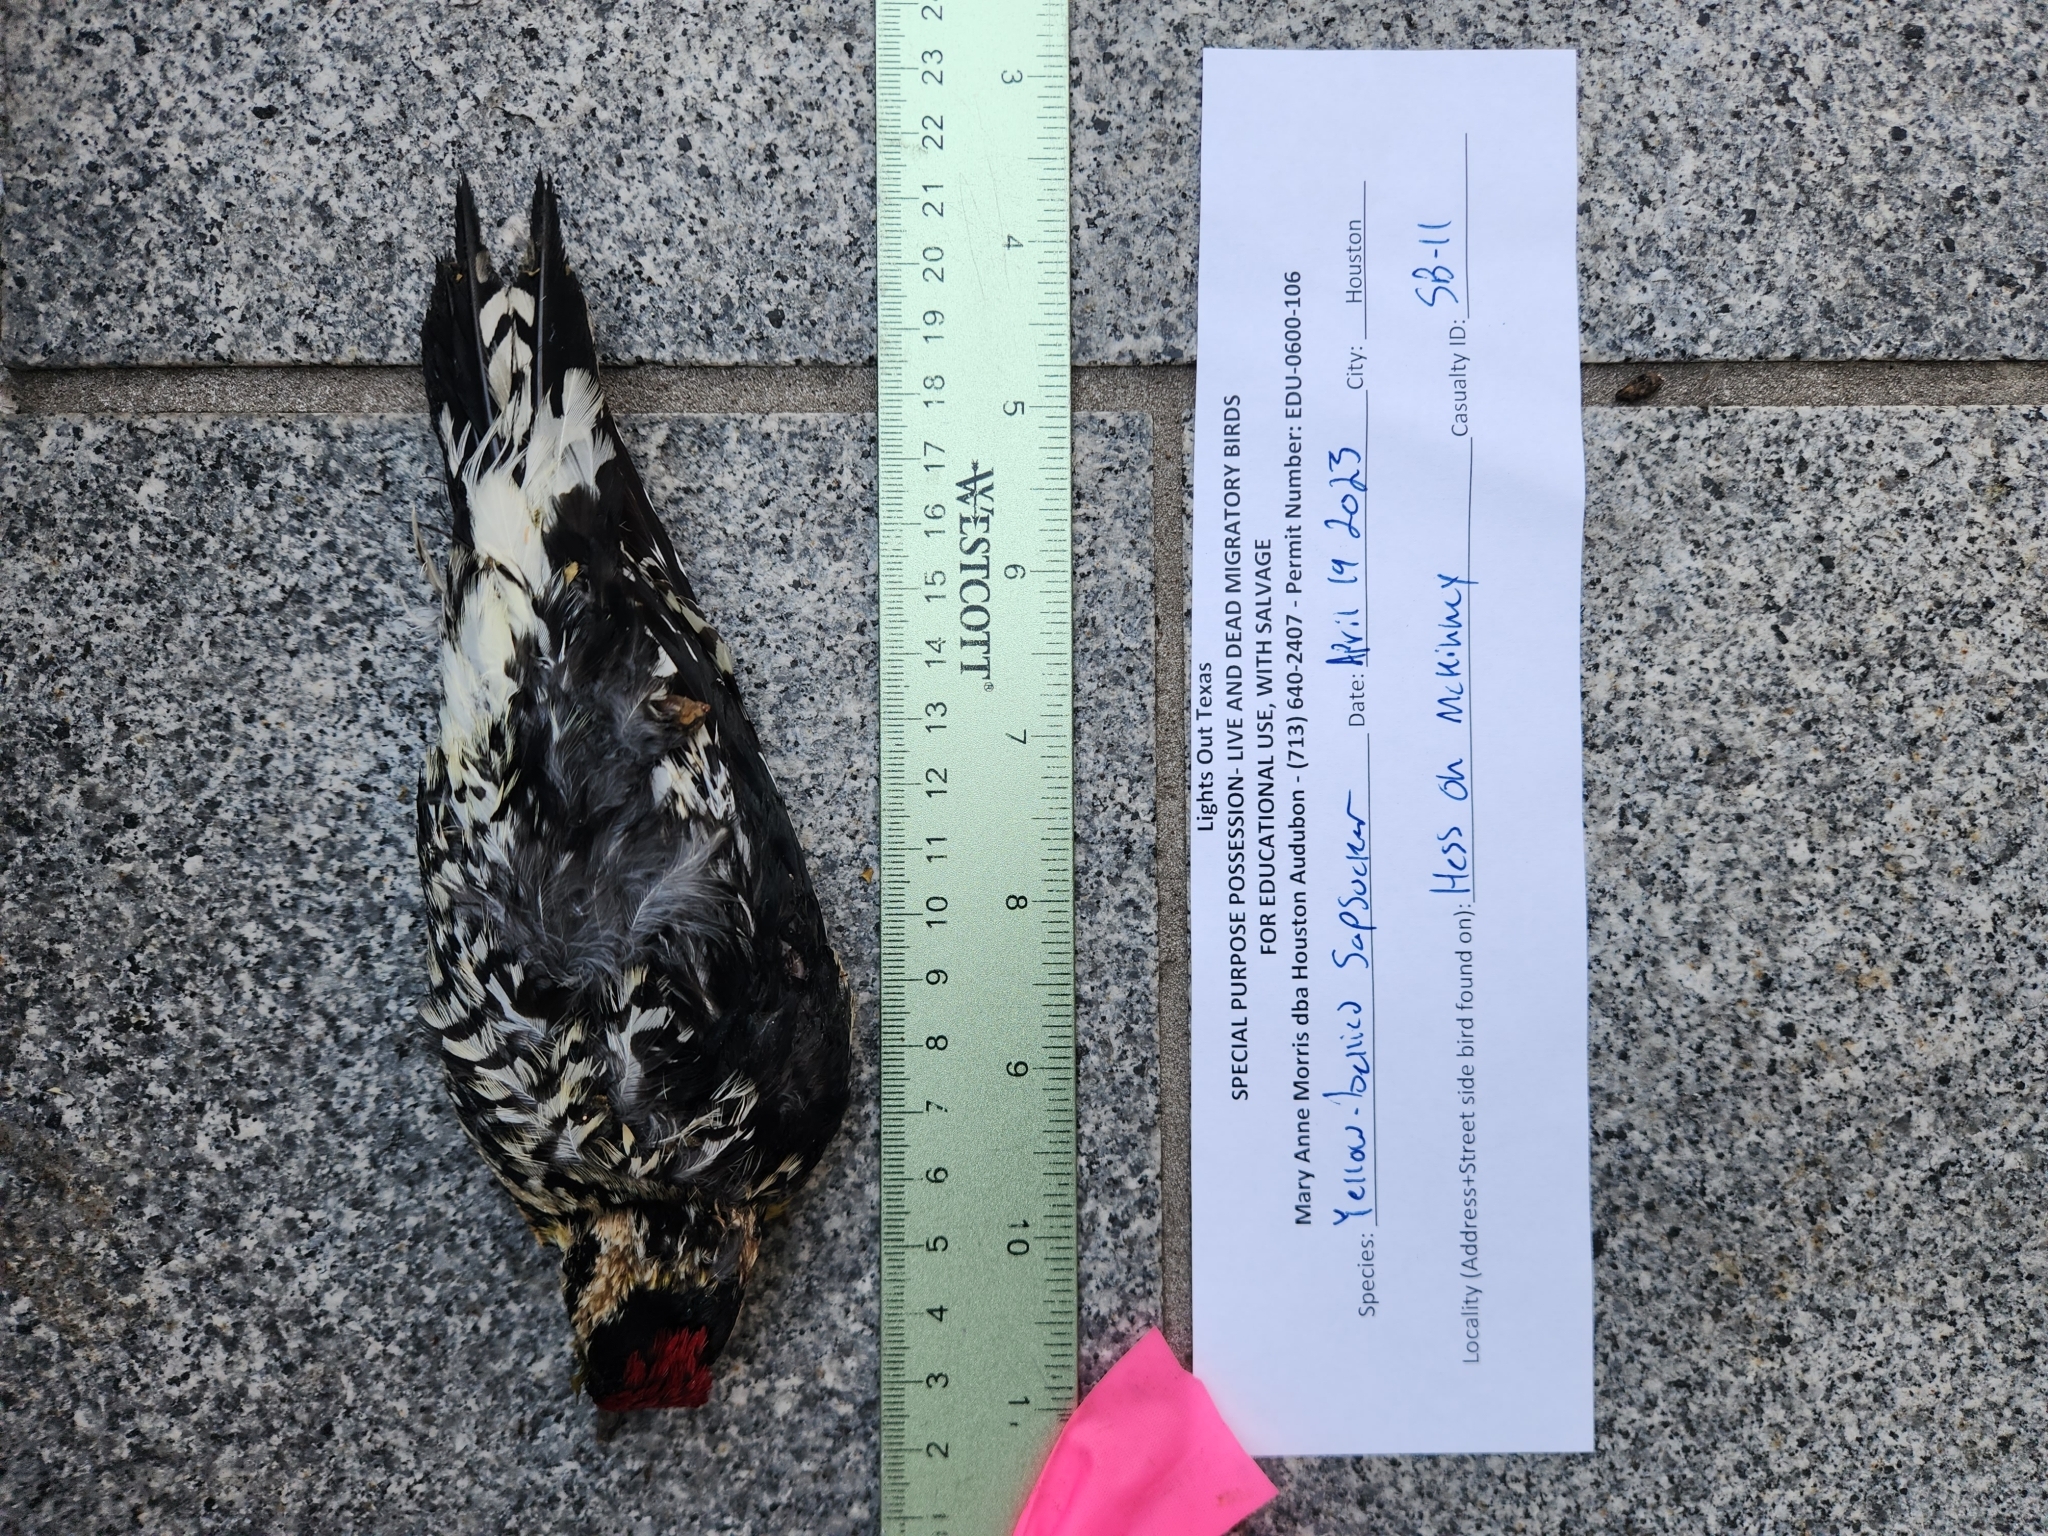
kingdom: Animalia
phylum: Chordata
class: Aves
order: Piciformes
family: Picidae
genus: Sphyrapicus
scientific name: Sphyrapicus varius
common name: Yellow-bellied sapsucker
